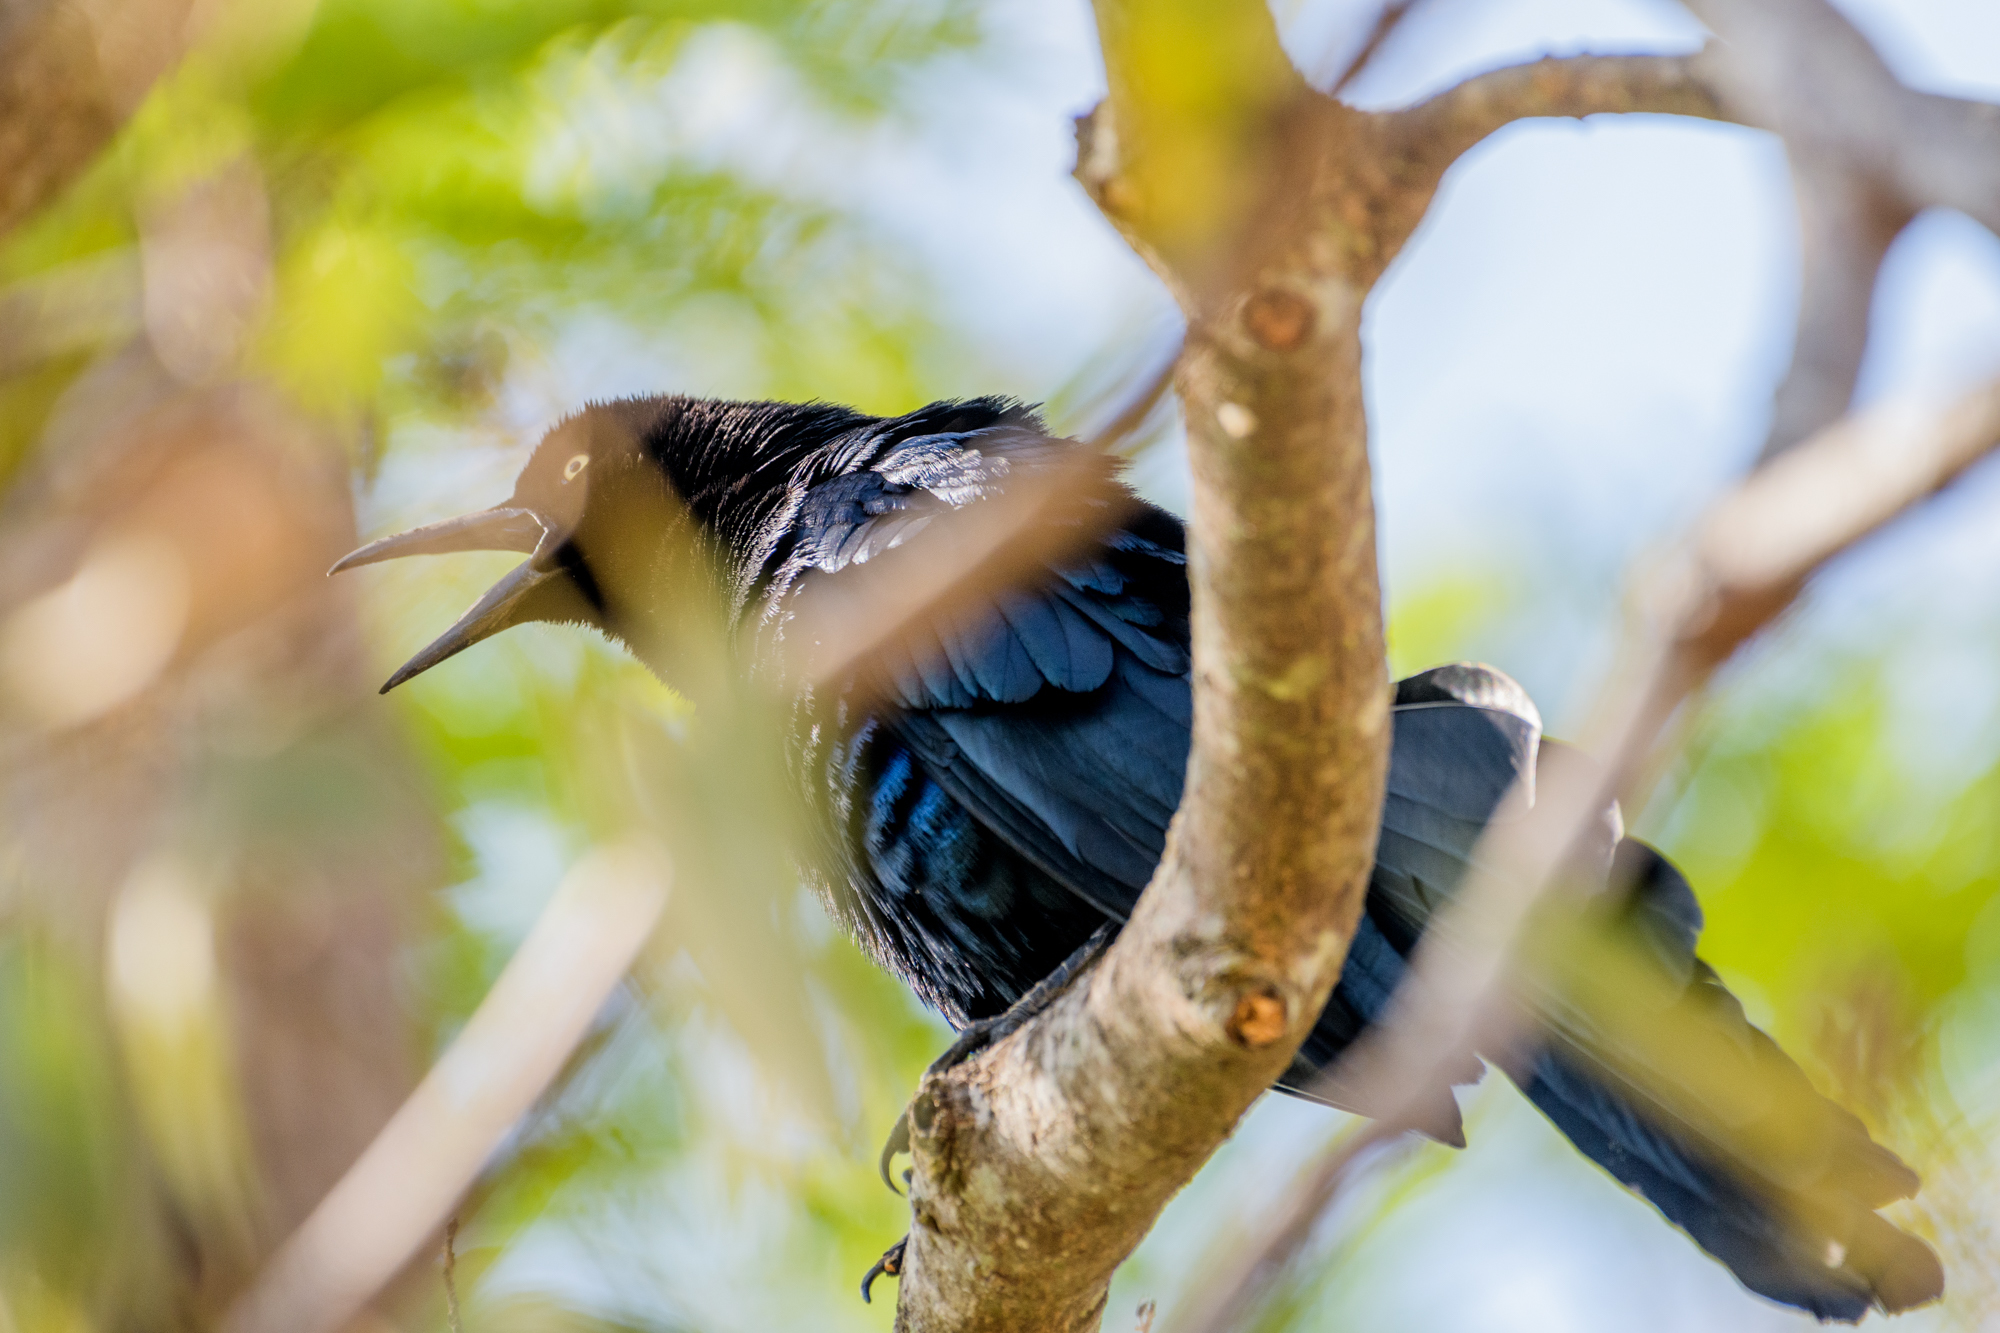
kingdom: Animalia
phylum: Chordata
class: Aves
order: Passeriformes
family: Icteridae
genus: Quiscalus
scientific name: Quiscalus mexicanus
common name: Great-tailed grackle
